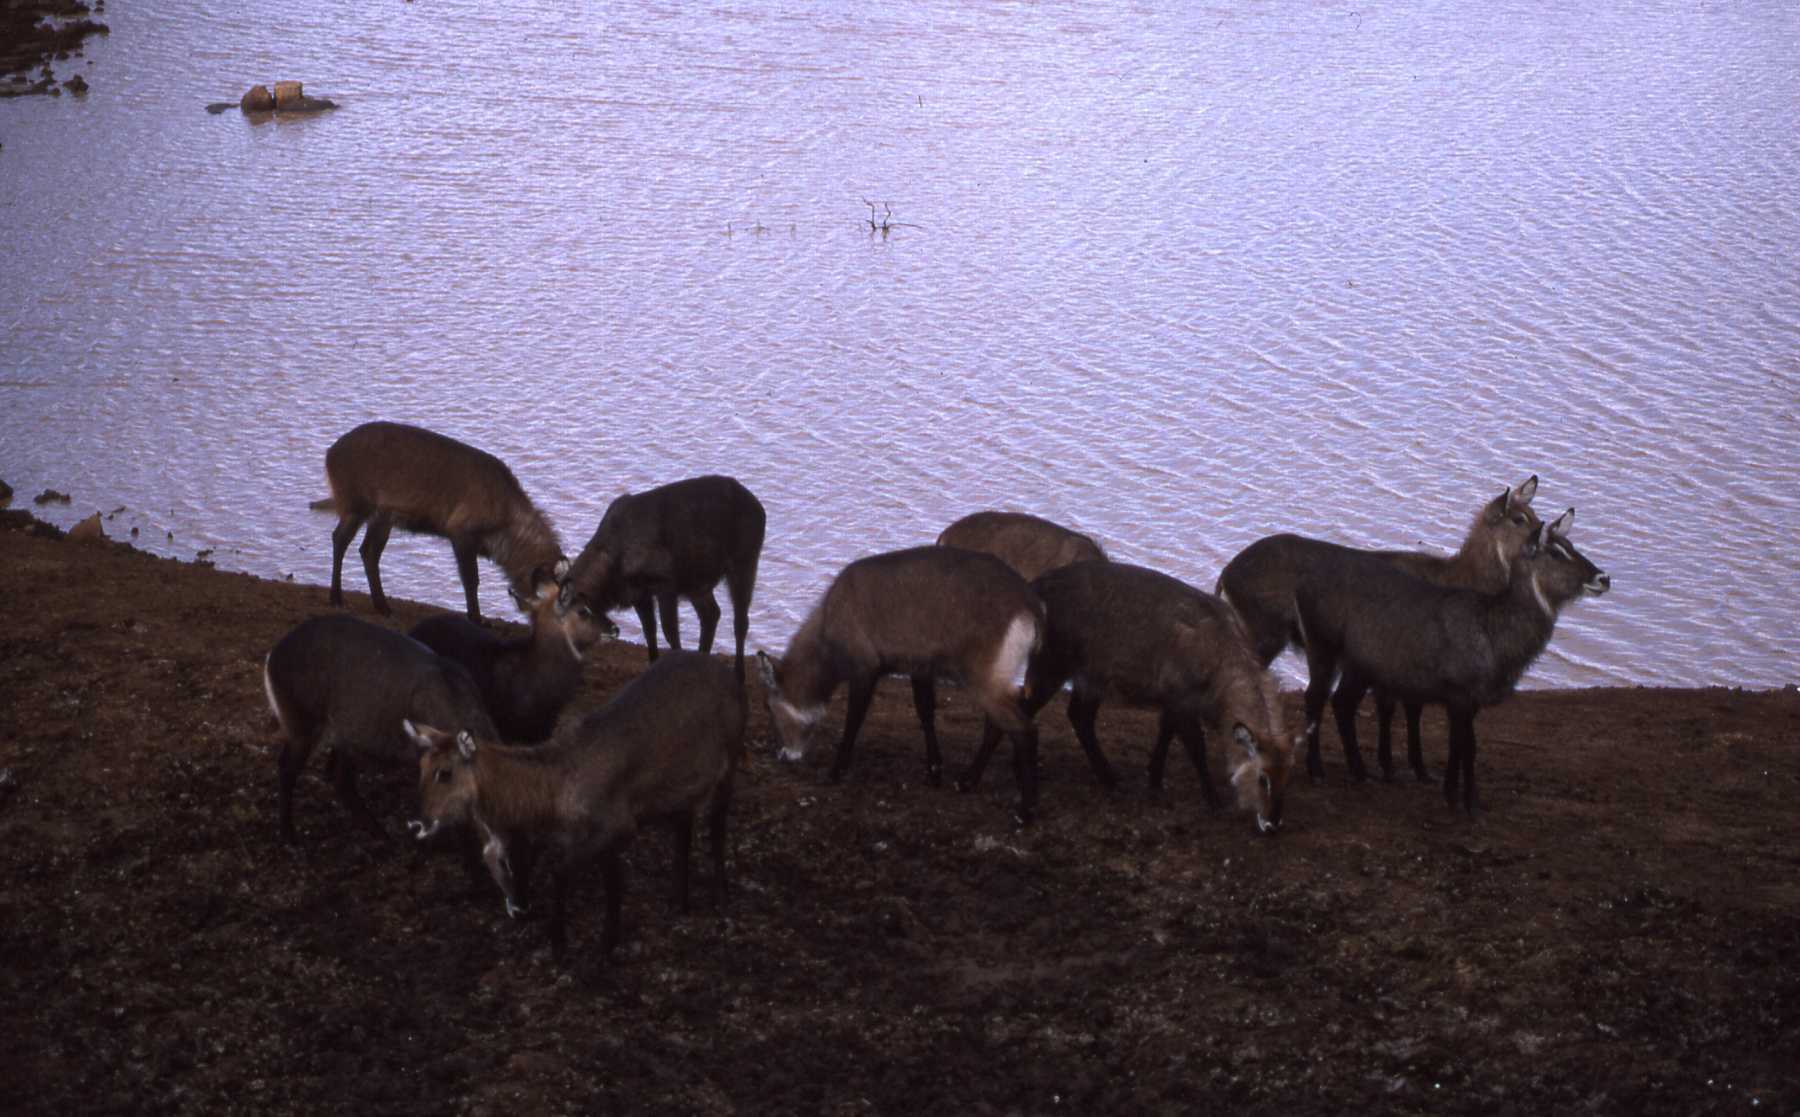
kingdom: Animalia
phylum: Chordata
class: Mammalia
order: Artiodactyla
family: Bovidae
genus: Kobus
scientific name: Kobus ellipsiprymnus
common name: Waterbuck
